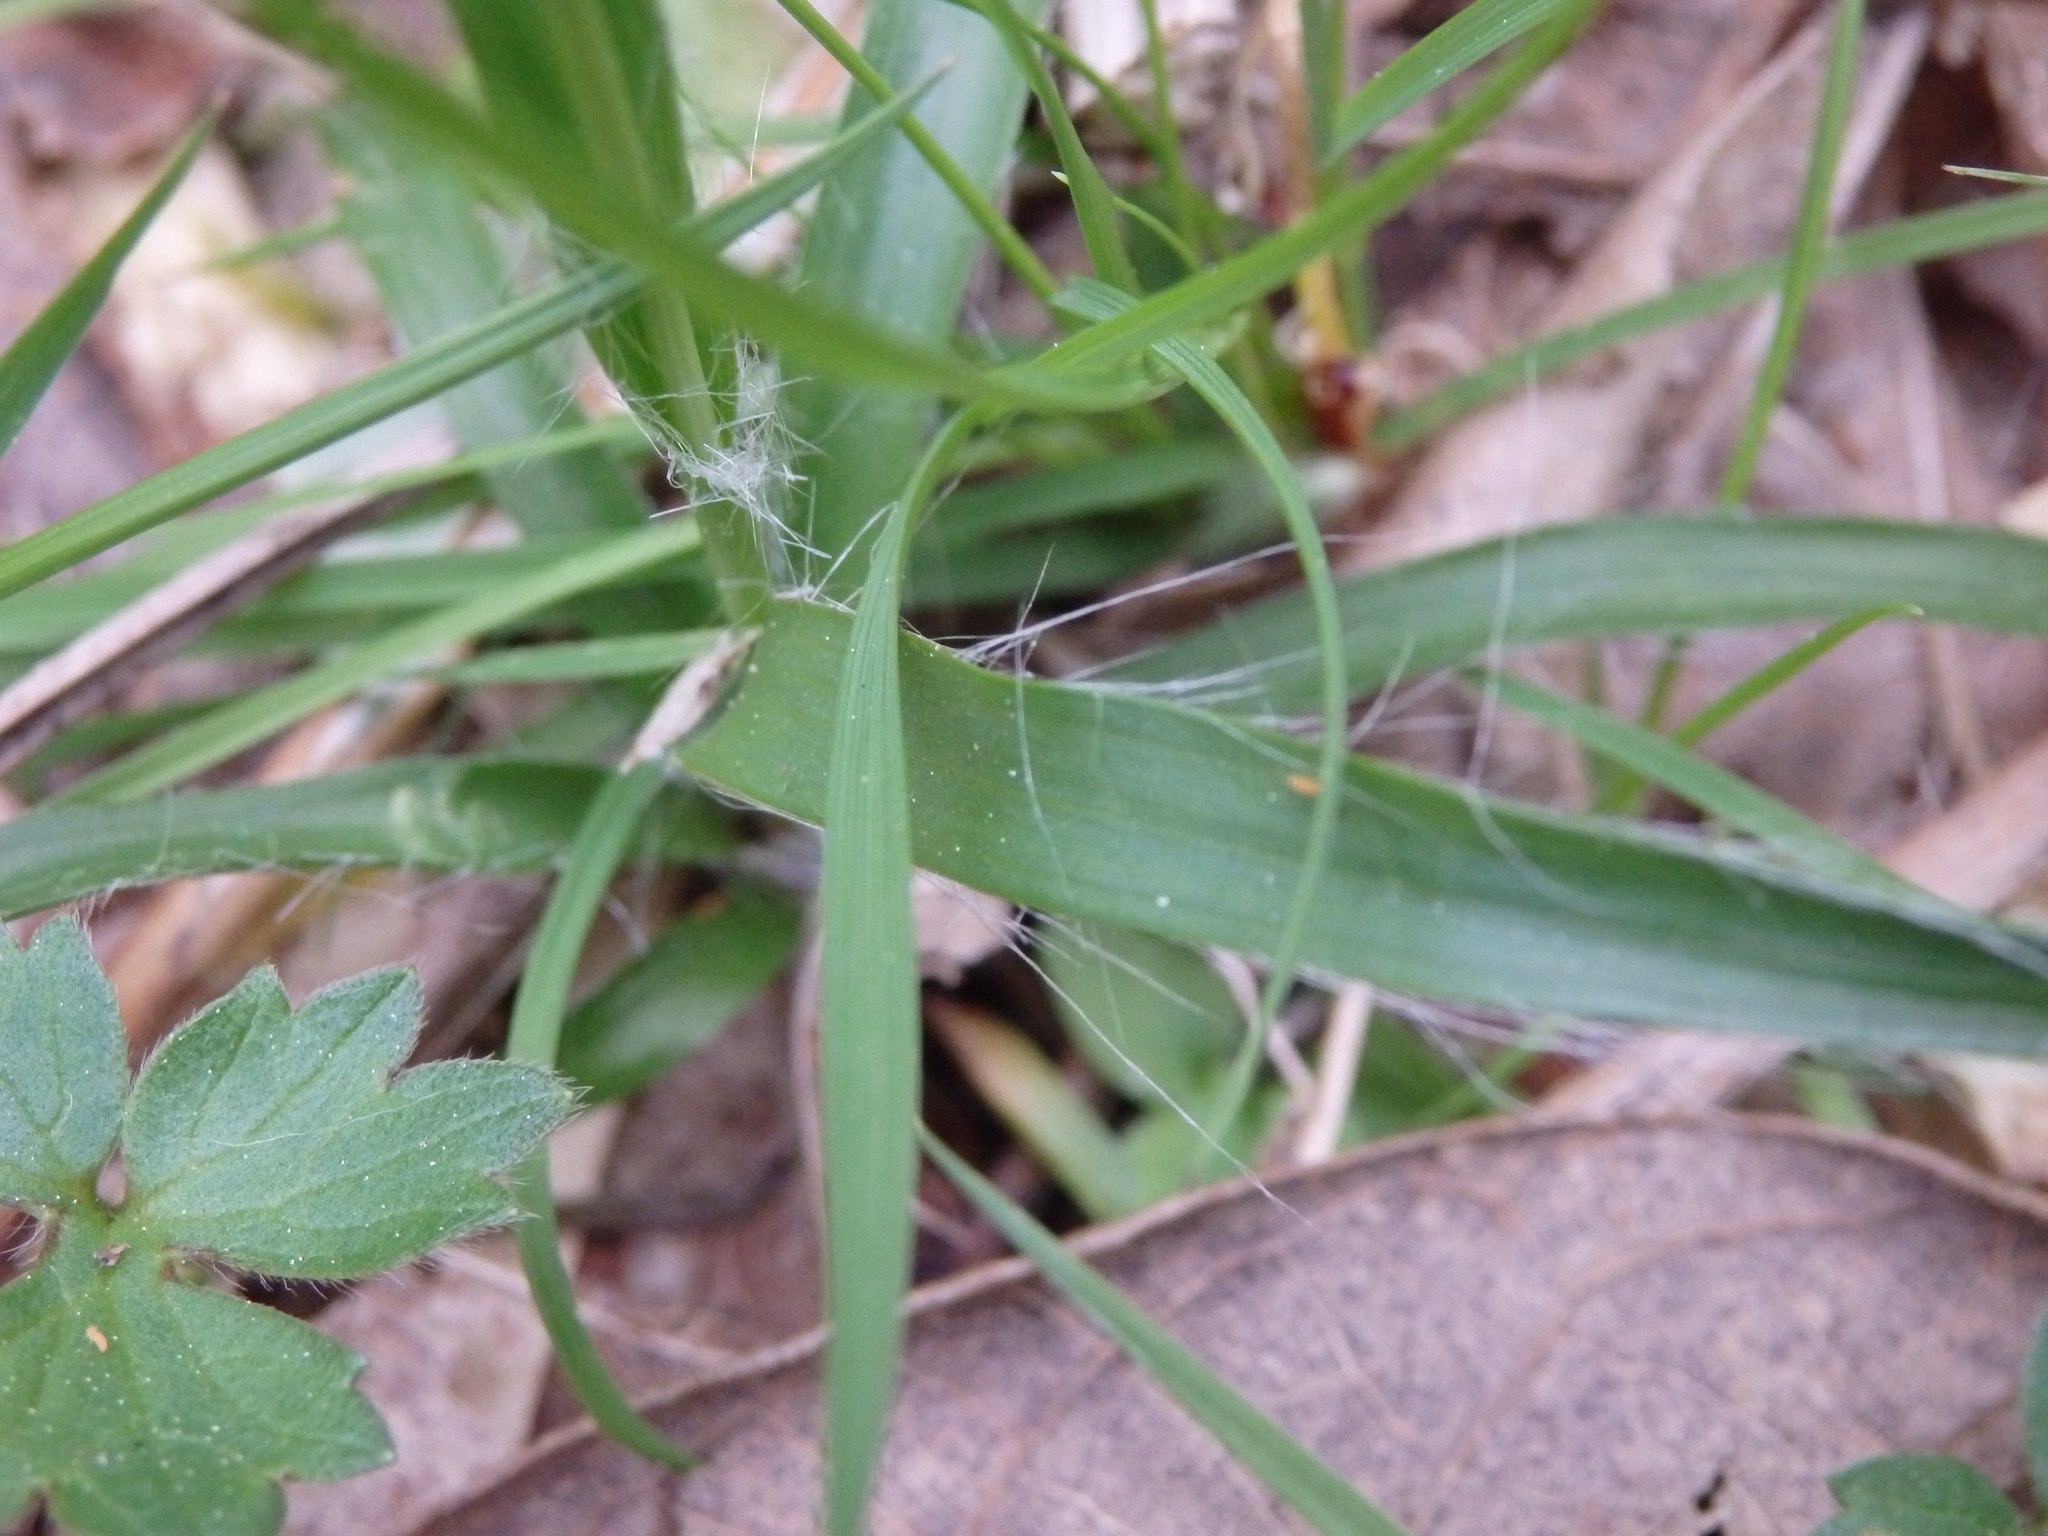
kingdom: Plantae
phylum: Tracheophyta
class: Liliopsida
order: Poales
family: Juncaceae
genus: Luzula
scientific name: Luzula campestris
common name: Field wood-rush
